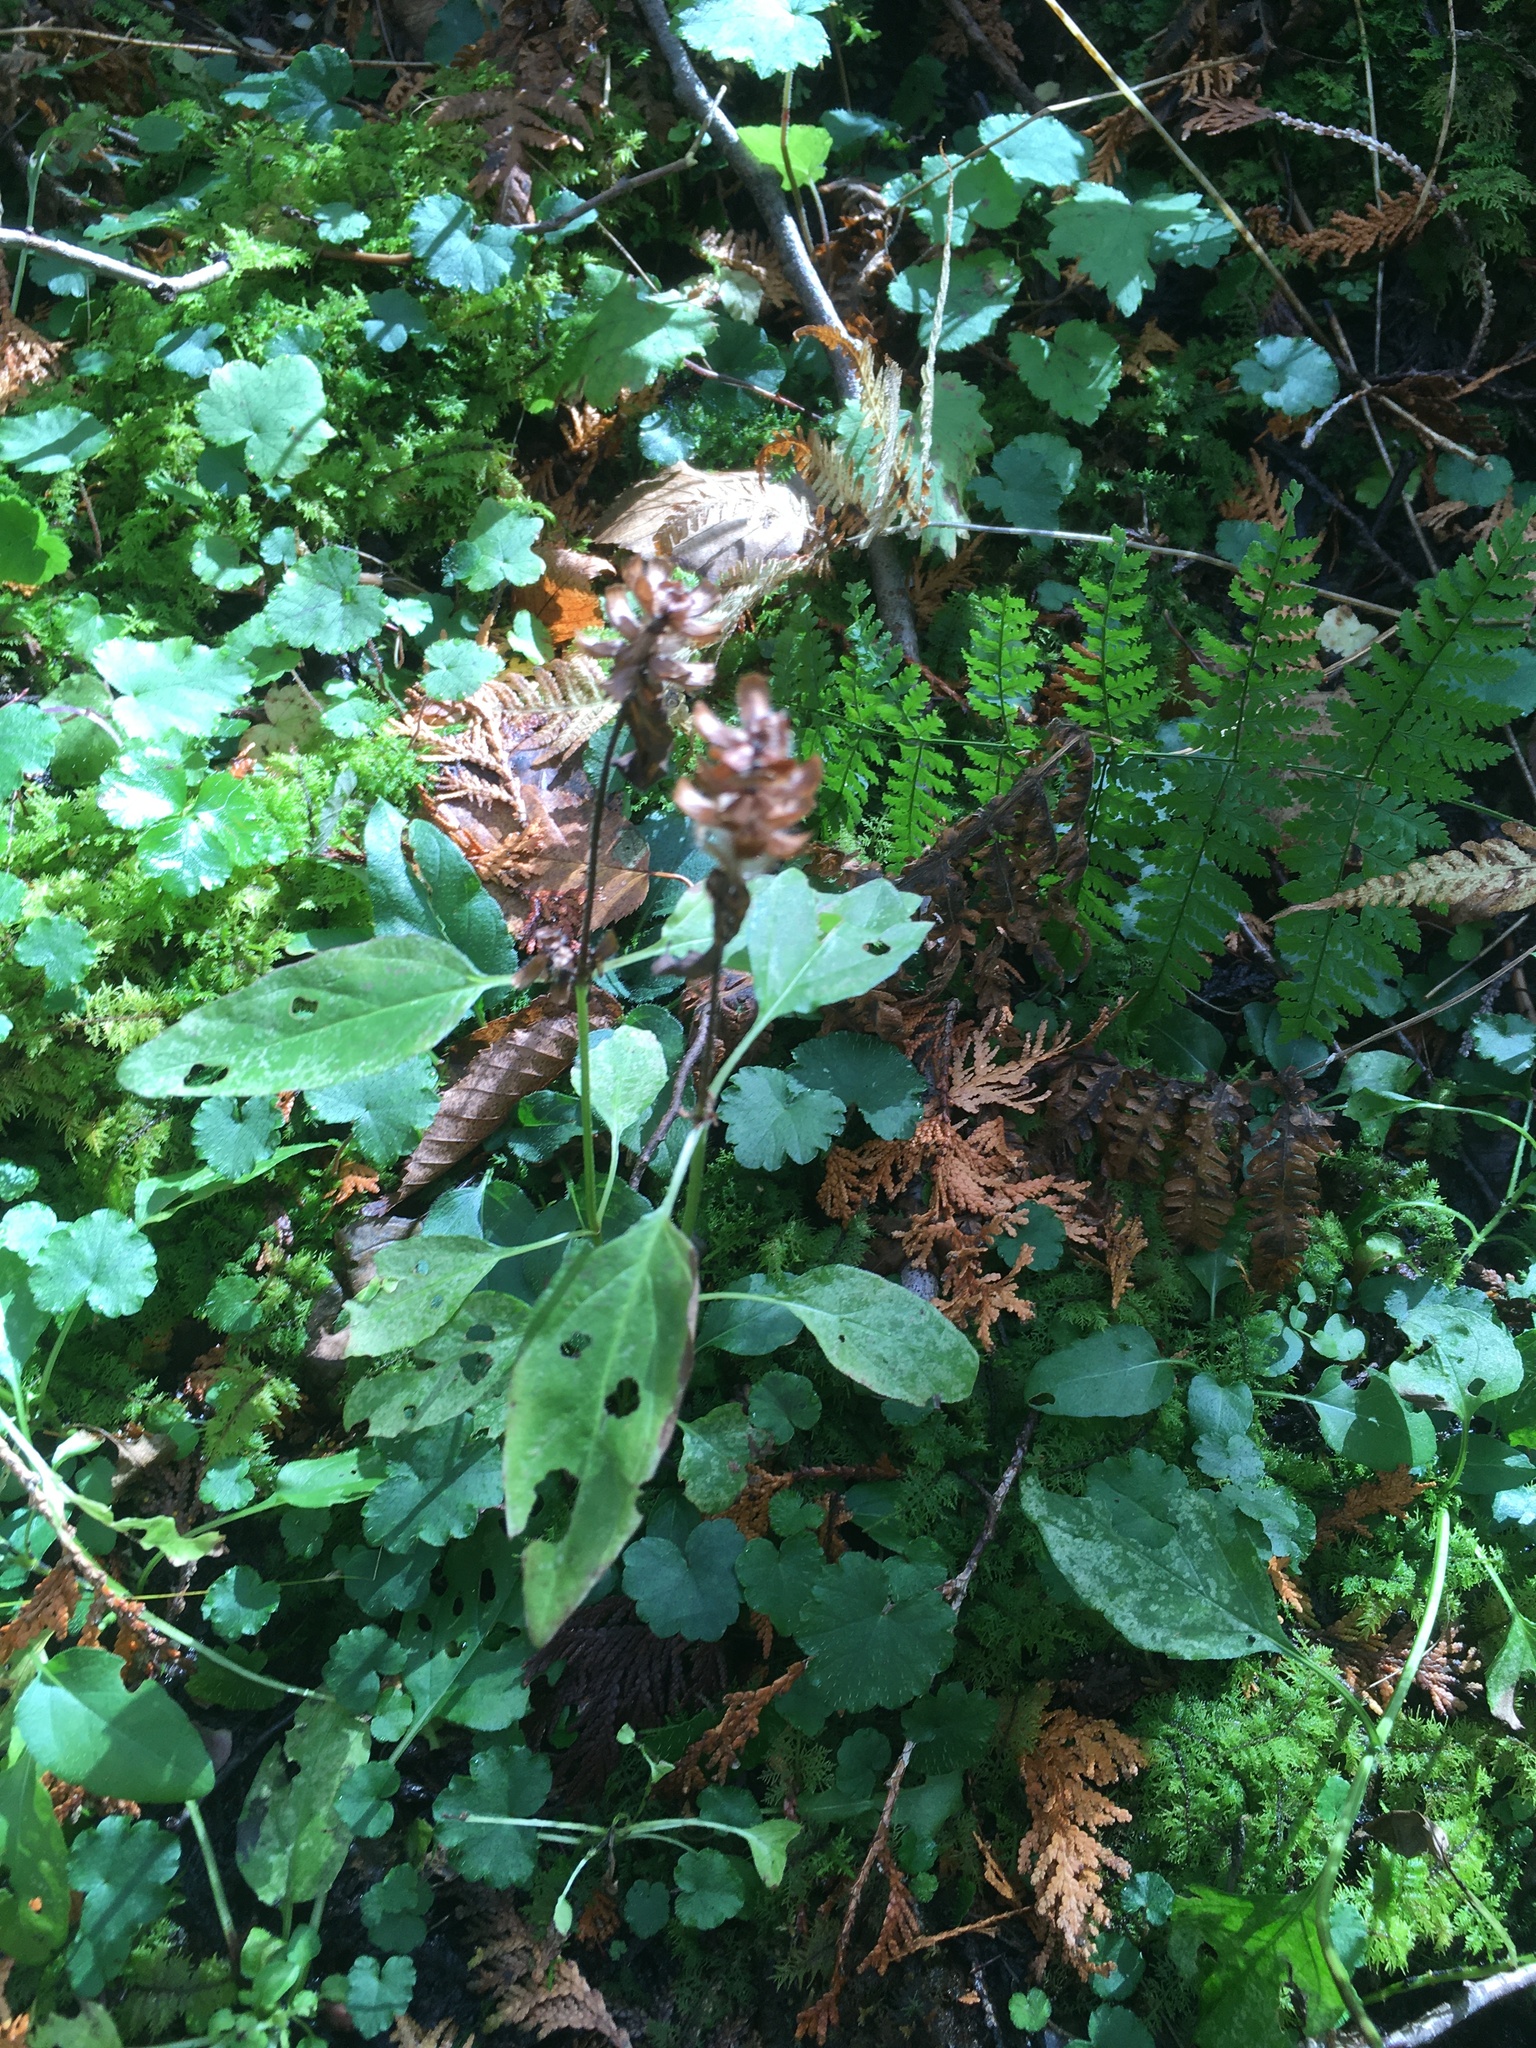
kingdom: Plantae
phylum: Tracheophyta
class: Magnoliopsida
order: Lamiales
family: Lamiaceae
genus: Prunella
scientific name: Prunella vulgaris
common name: Heal-all
